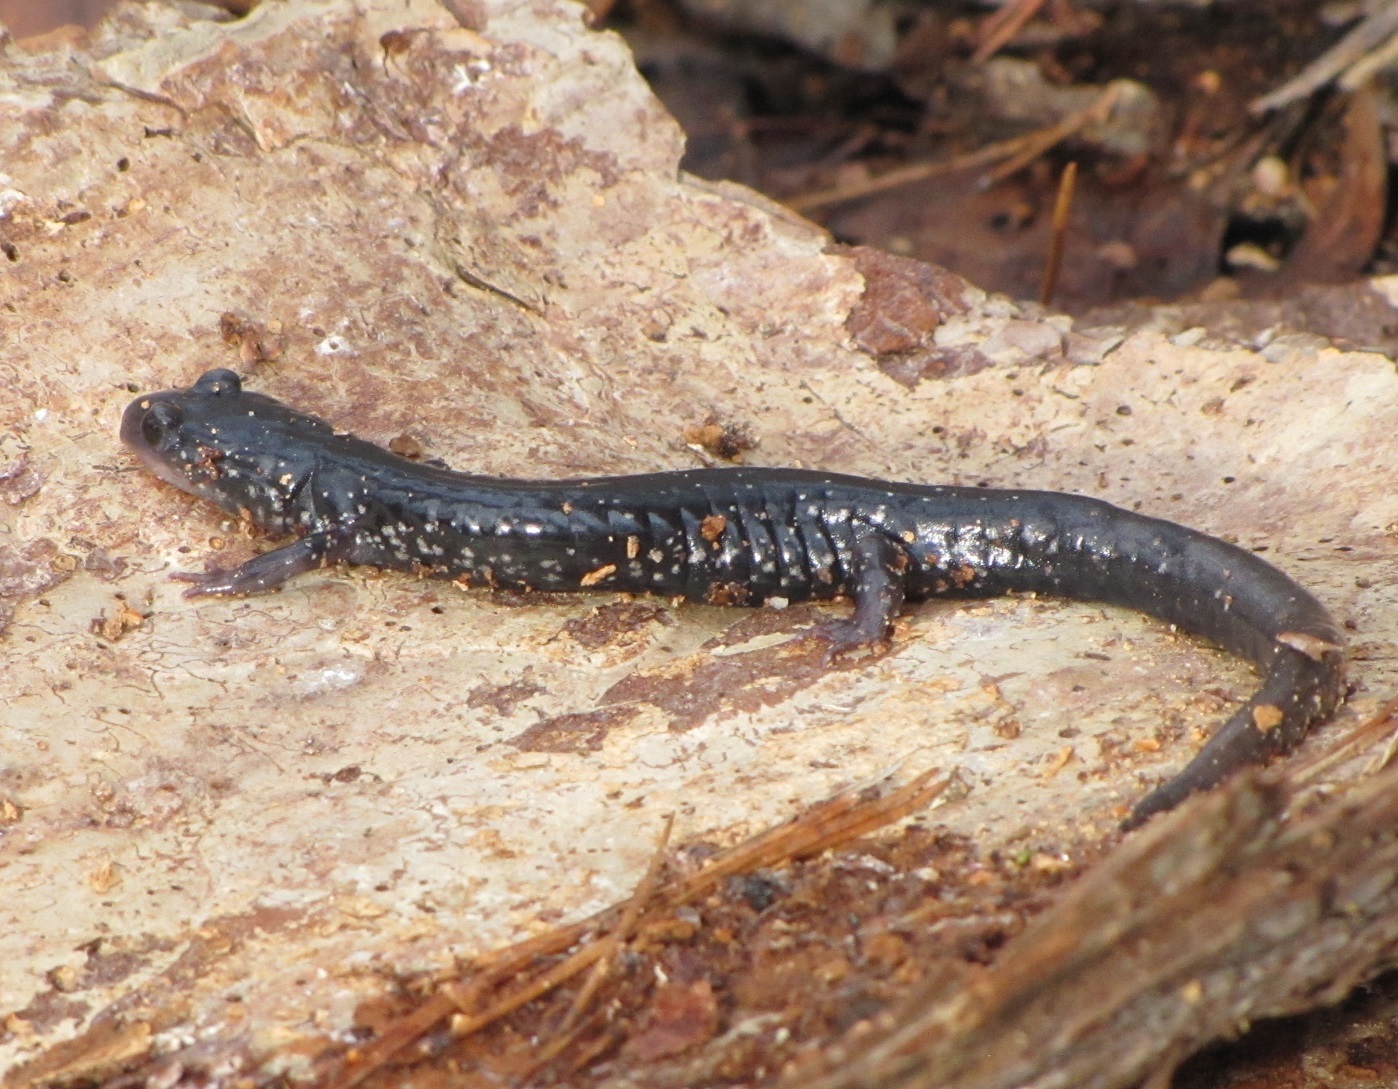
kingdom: Animalia
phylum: Chordata
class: Amphibia
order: Caudata
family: Plethodontidae
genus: Plethodon
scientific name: Plethodon cylindraceus
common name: White-spotted slimy salamander
